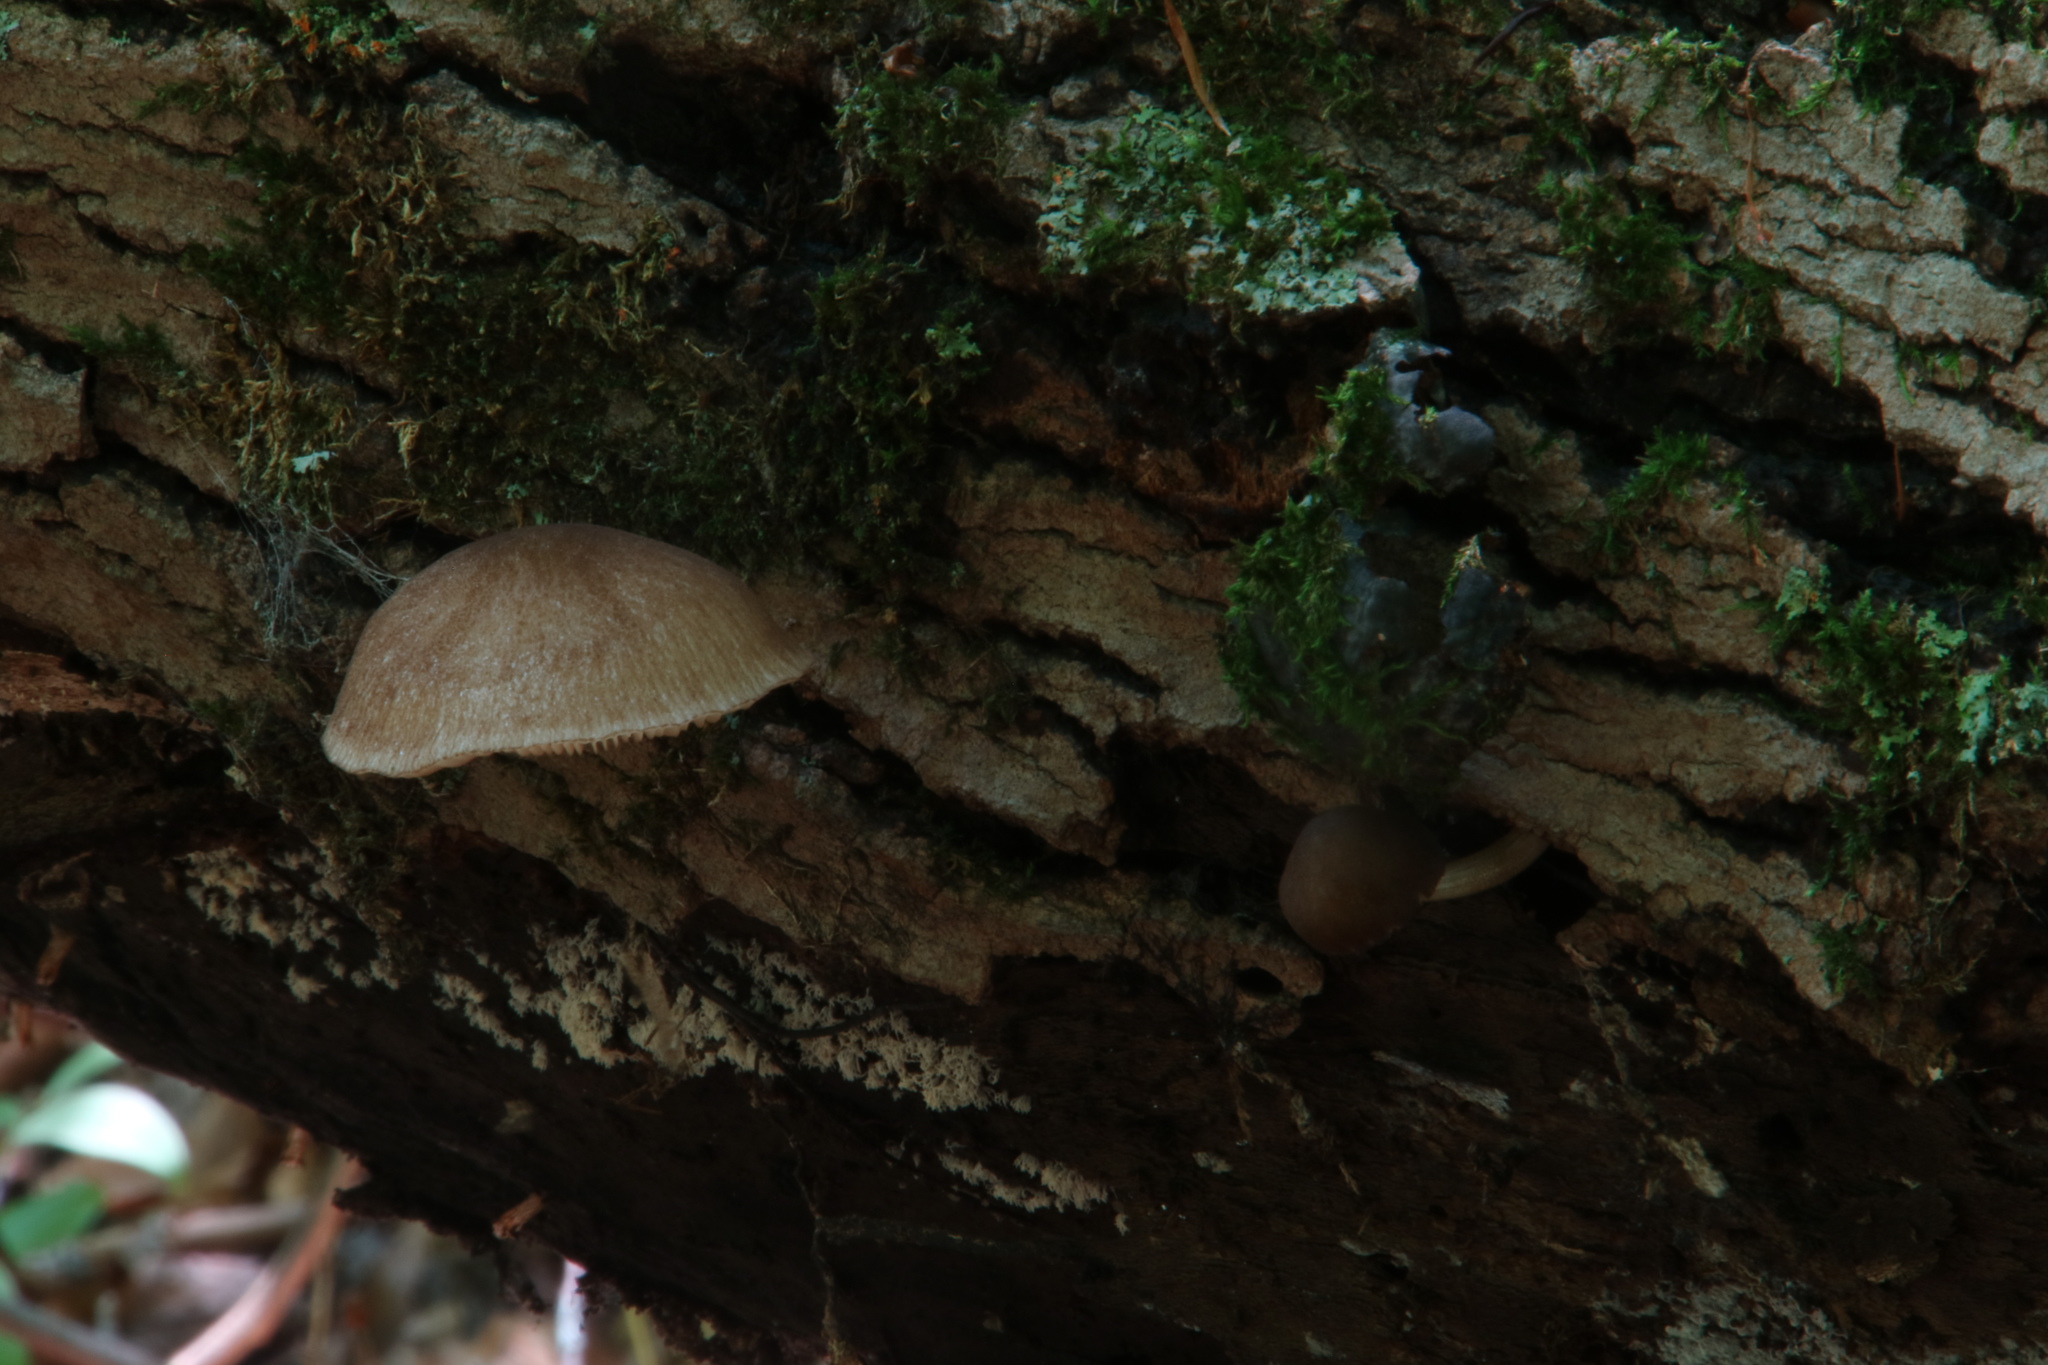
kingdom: Fungi
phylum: Basidiomycota
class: Agaricomycetes
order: Agaricales
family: Pluteaceae
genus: Pluteus
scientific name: Pluteus longistriatus
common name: Pleated pluteus
